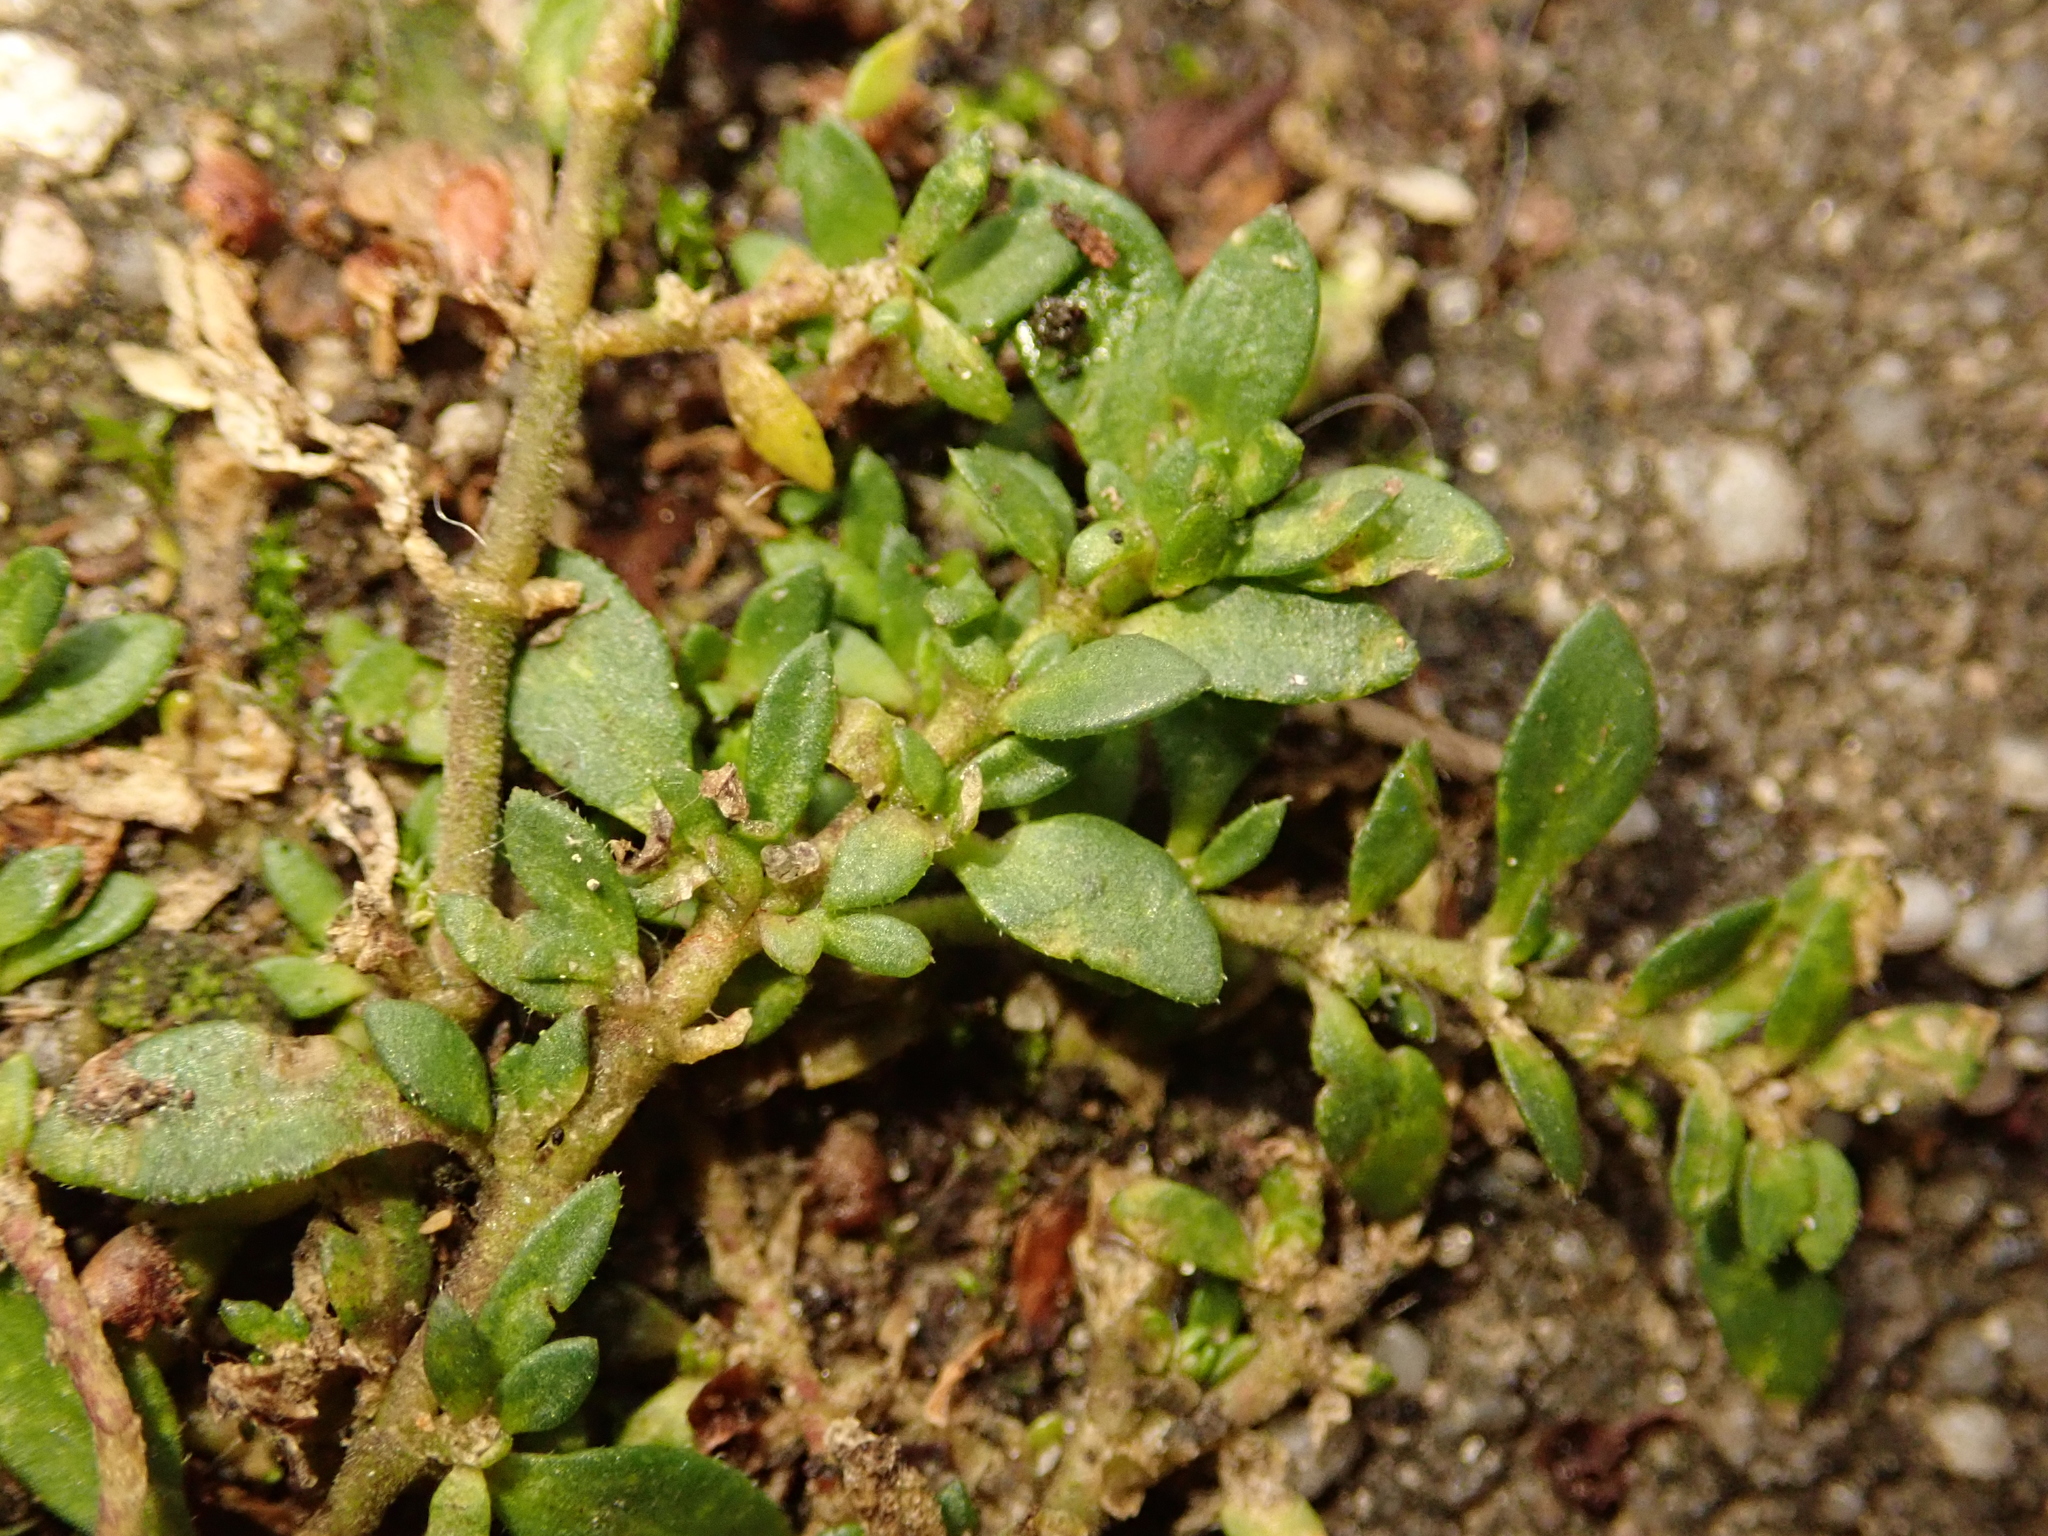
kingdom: Plantae
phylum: Tracheophyta
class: Magnoliopsida
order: Caryophyllales
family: Caryophyllaceae
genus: Herniaria
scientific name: Herniaria glabra
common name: Smooth rupturewort
